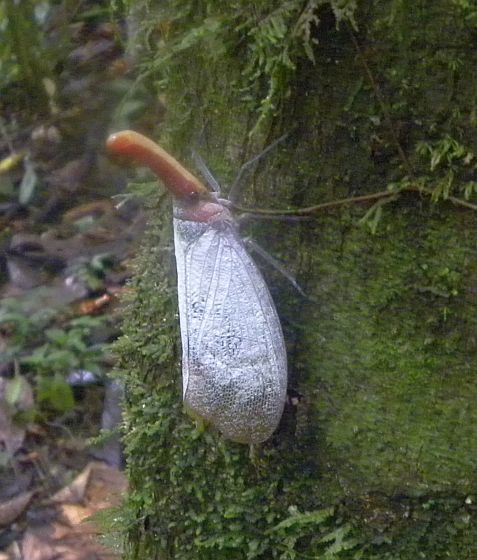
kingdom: Animalia
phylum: Arthropoda
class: Insecta
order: Hemiptera
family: Fulgoridae
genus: Pyrops
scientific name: Pyrops sultanus
